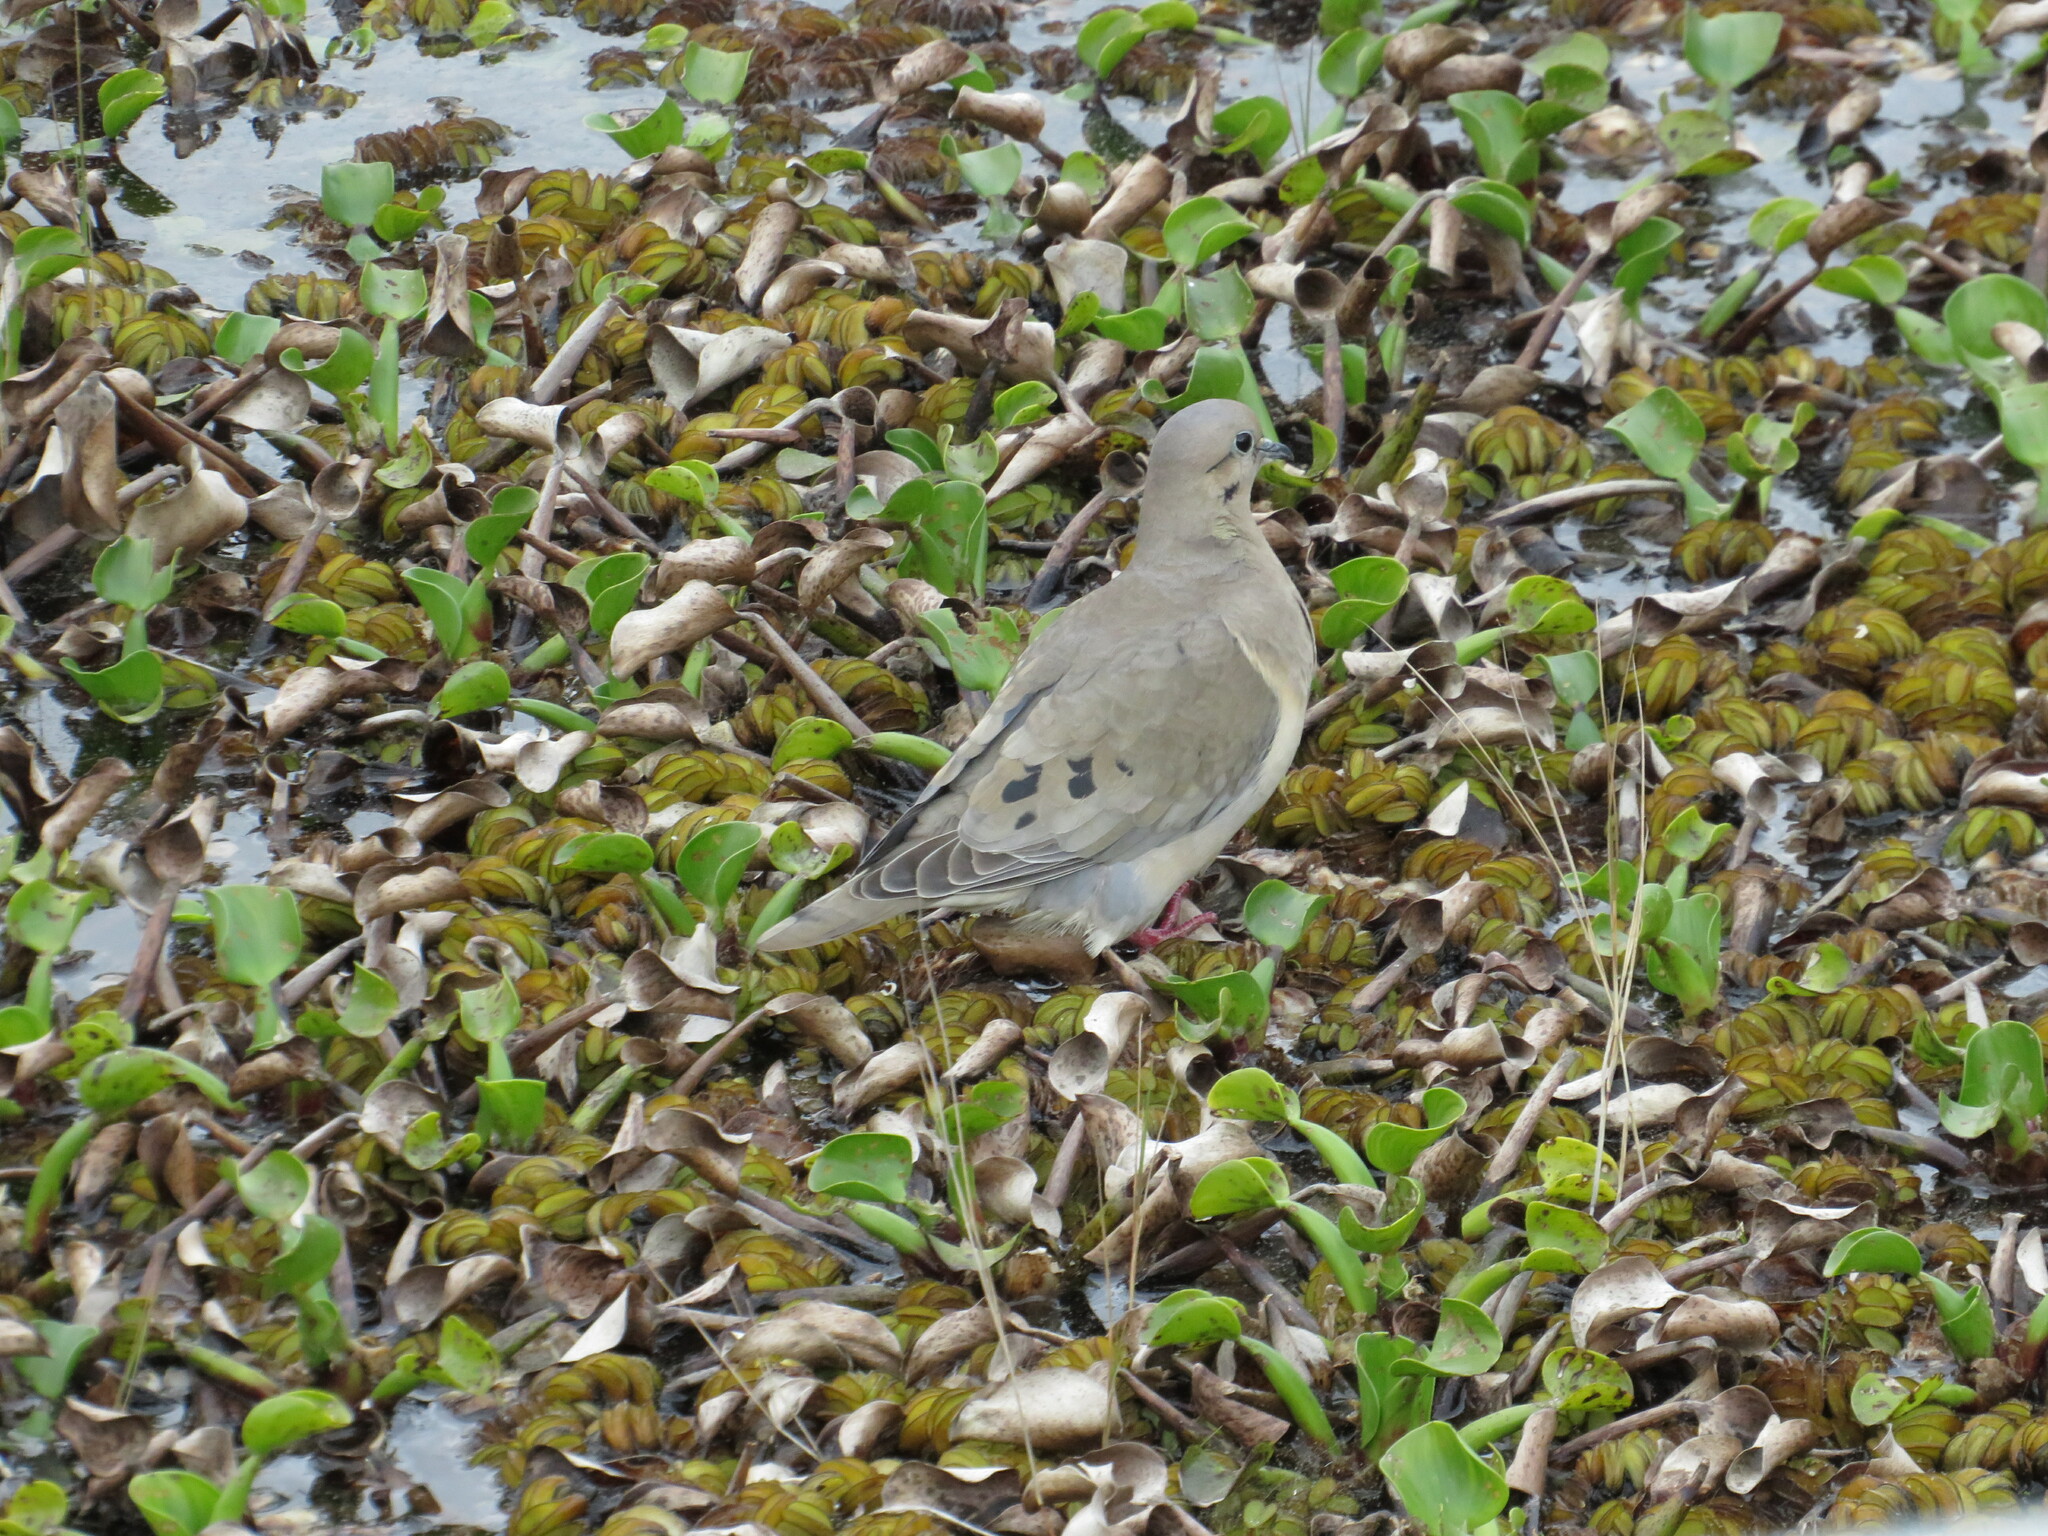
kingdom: Animalia
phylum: Chordata
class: Aves
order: Columbiformes
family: Columbidae
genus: Zenaida
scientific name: Zenaida auriculata
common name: Eared dove
